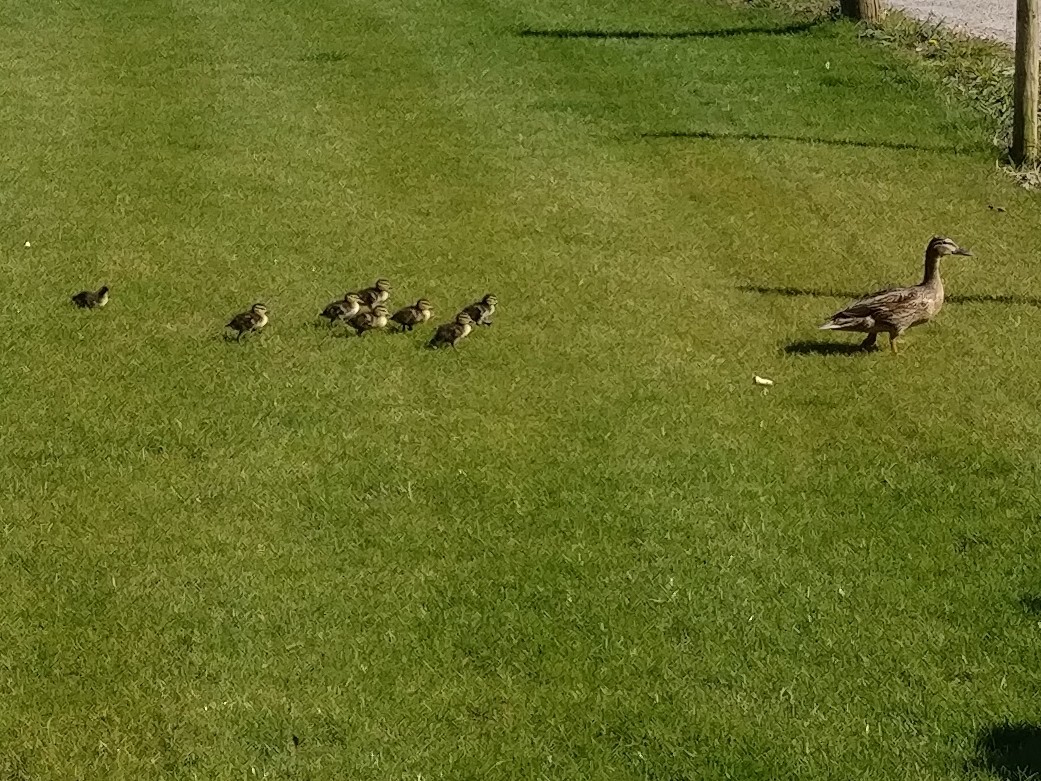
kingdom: Animalia
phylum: Chordata
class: Aves
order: Anseriformes
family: Anatidae
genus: Anas
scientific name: Anas platyrhynchos
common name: Mallard
